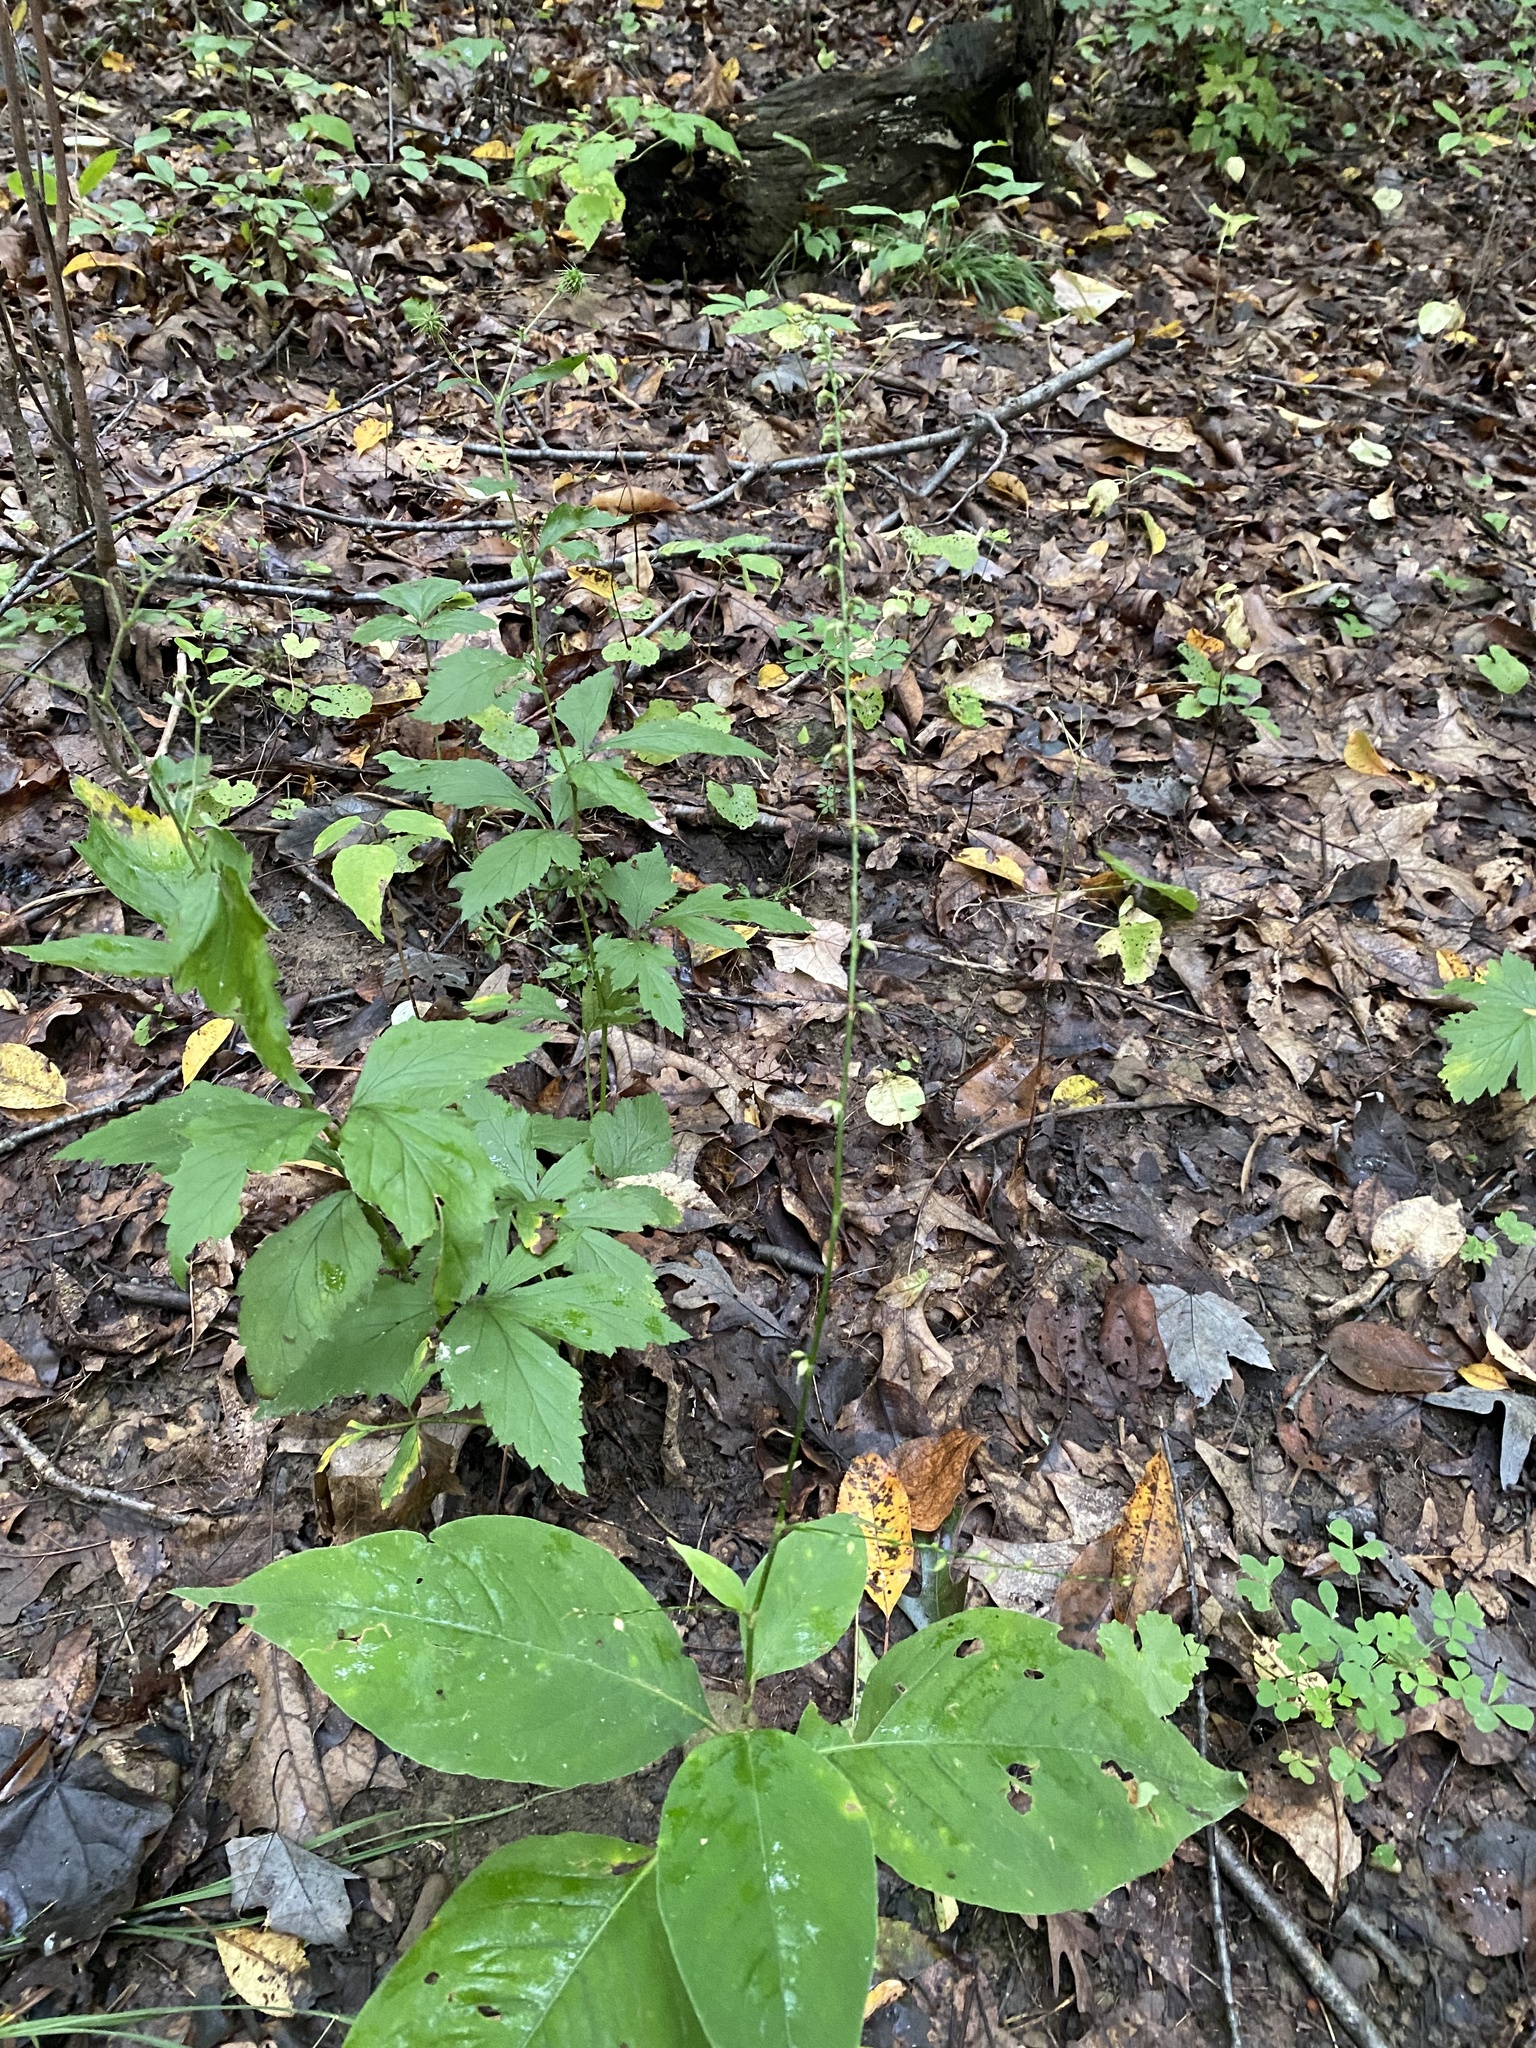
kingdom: Plantae
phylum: Tracheophyta
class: Magnoliopsida
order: Caryophyllales
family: Polygonaceae
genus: Persicaria
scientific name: Persicaria virginiana
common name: Jumpseed
